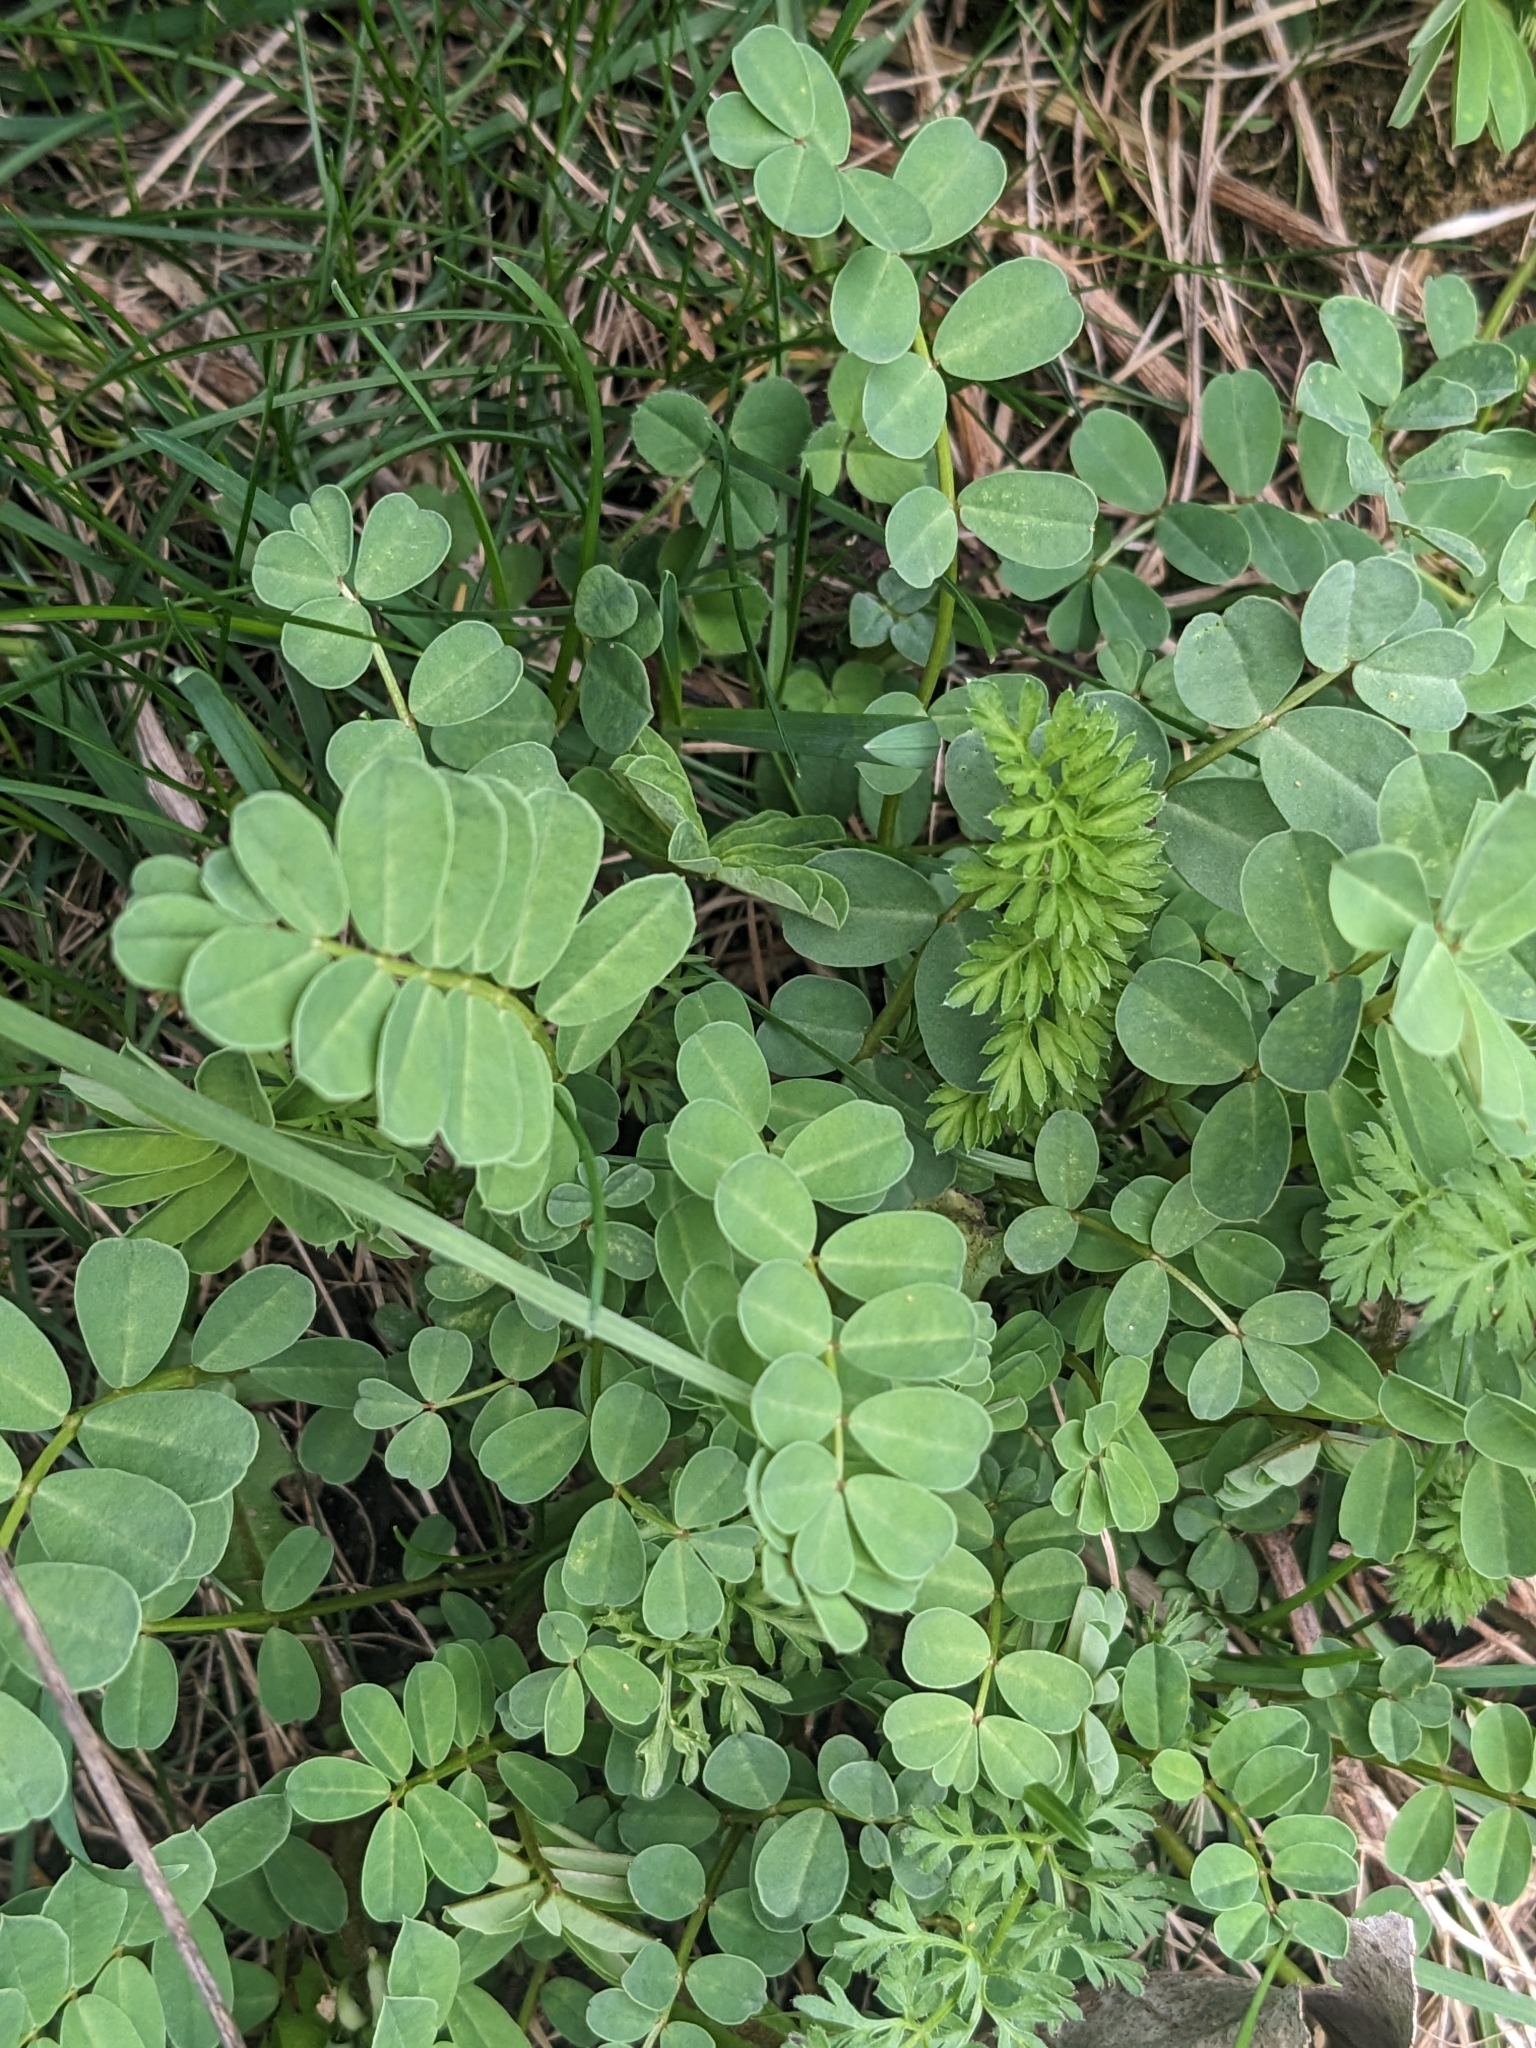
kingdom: Plantae
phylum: Tracheophyta
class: Magnoliopsida
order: Fabales
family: Fabaceae
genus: Coronilla
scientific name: Coronilla varia
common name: Crownvetch
